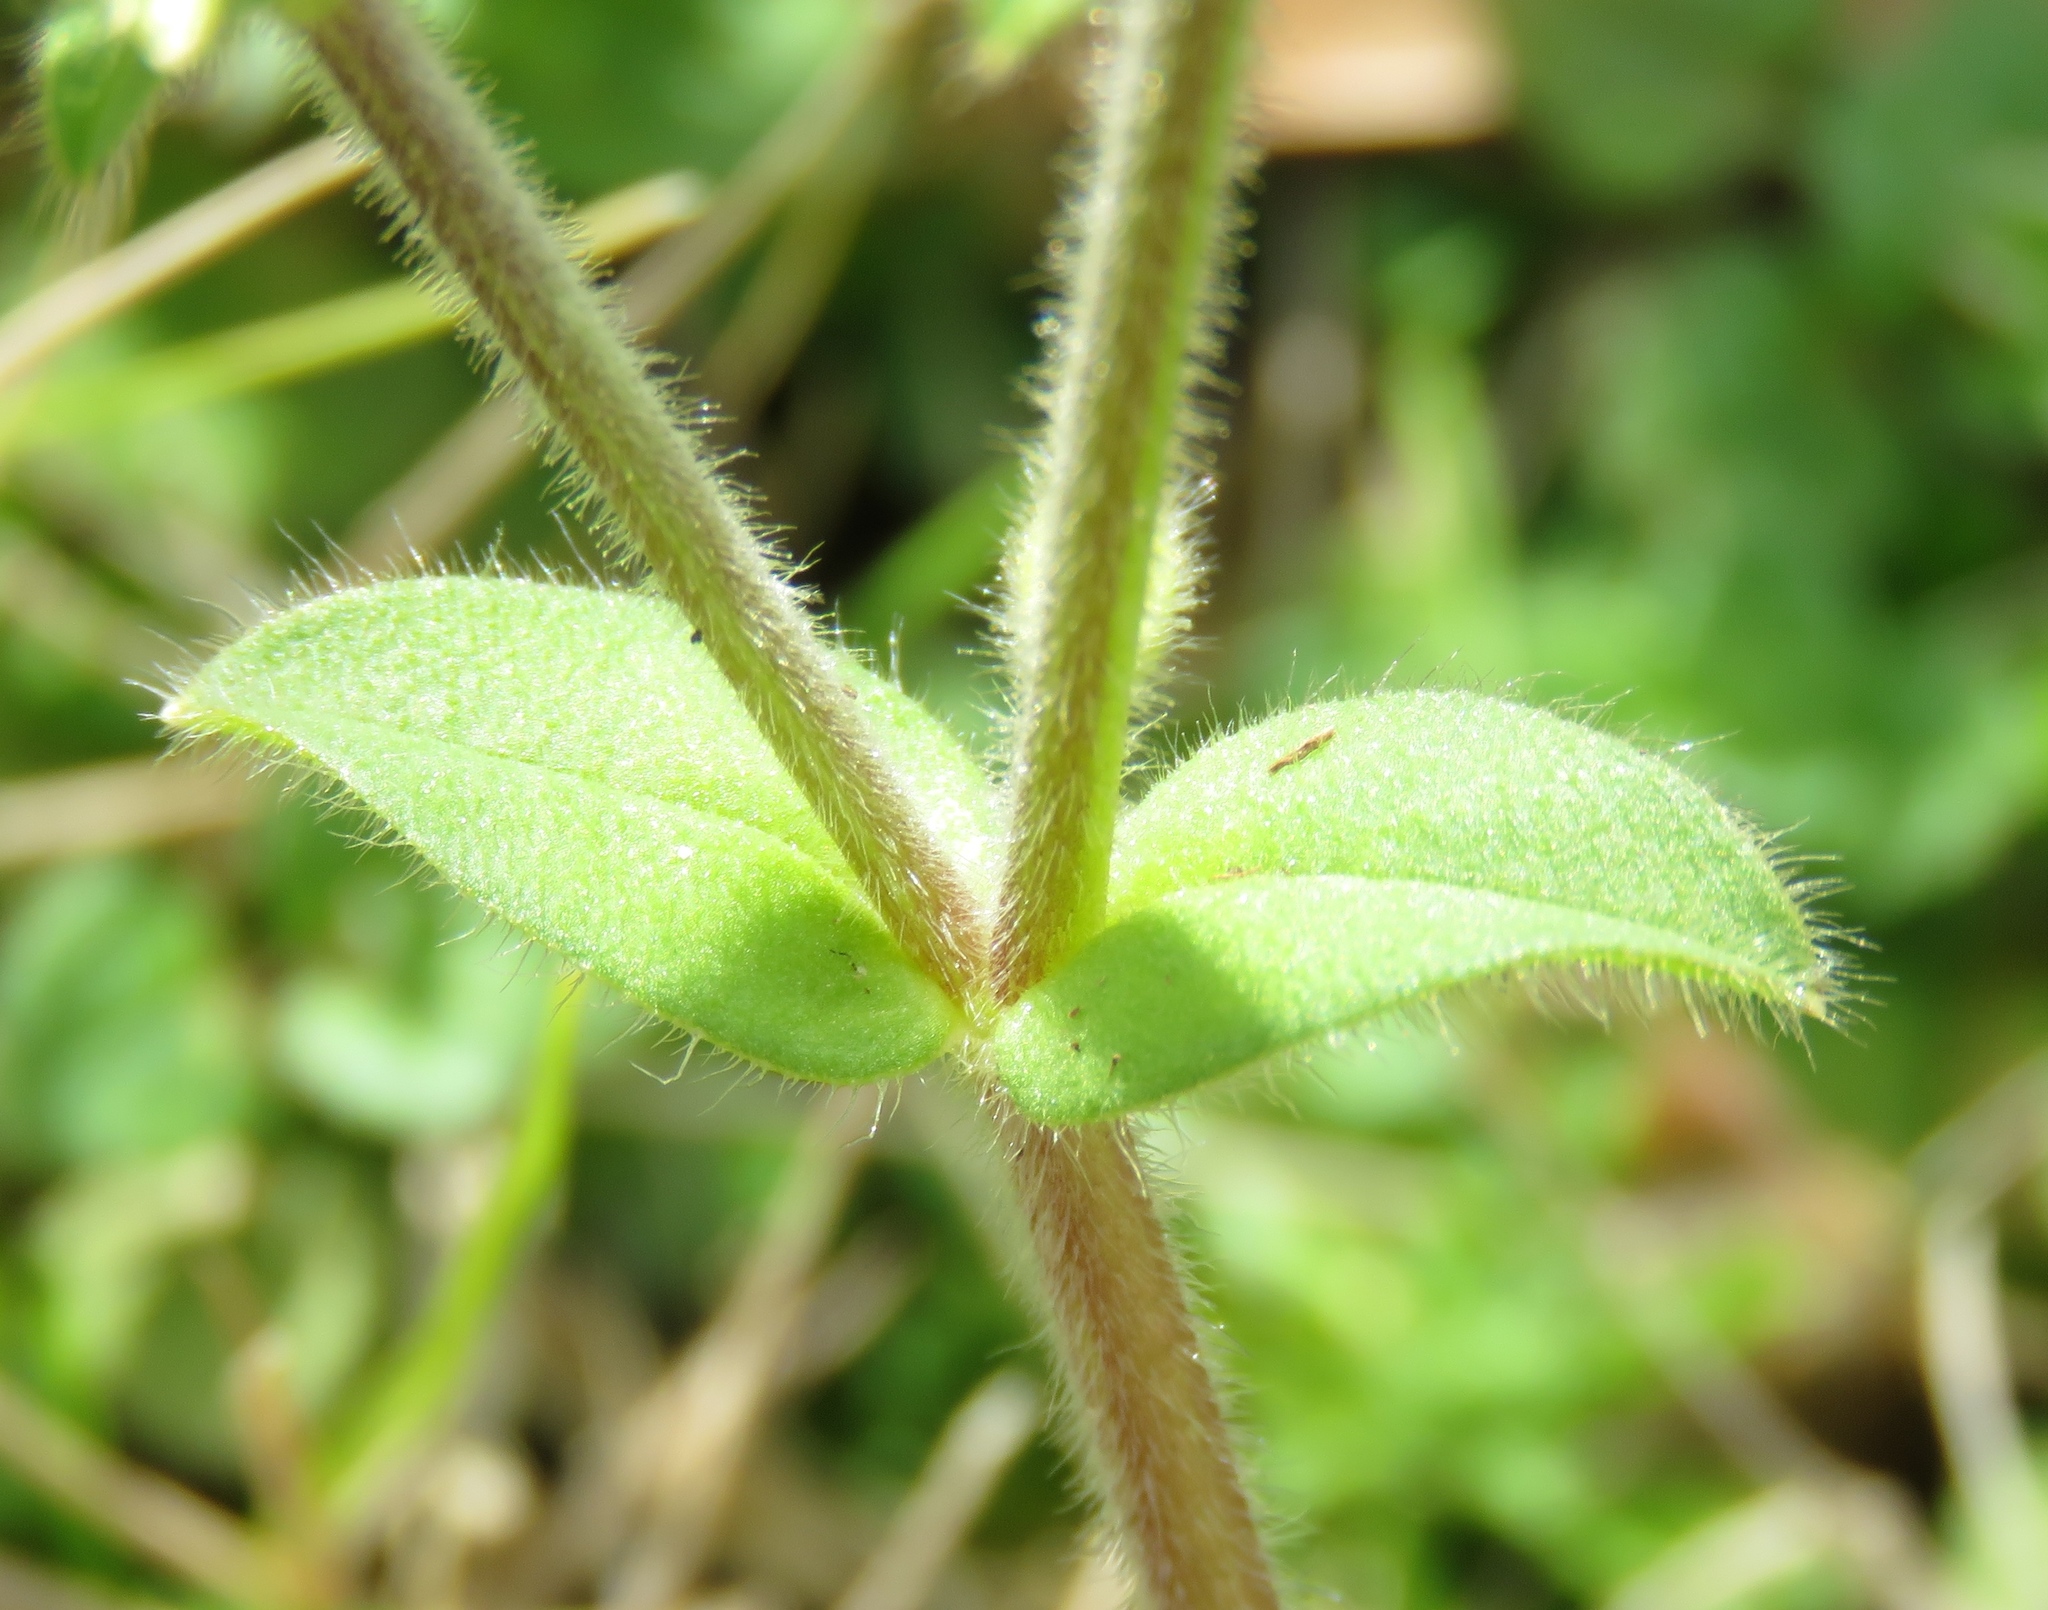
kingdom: Plantae
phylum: Tracheophyta
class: Magnoliopsida
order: Caryophyllales
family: Caryophyllaceae
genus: Cerastium
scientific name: Cerastium glomeratum
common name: Sticky chickweed
